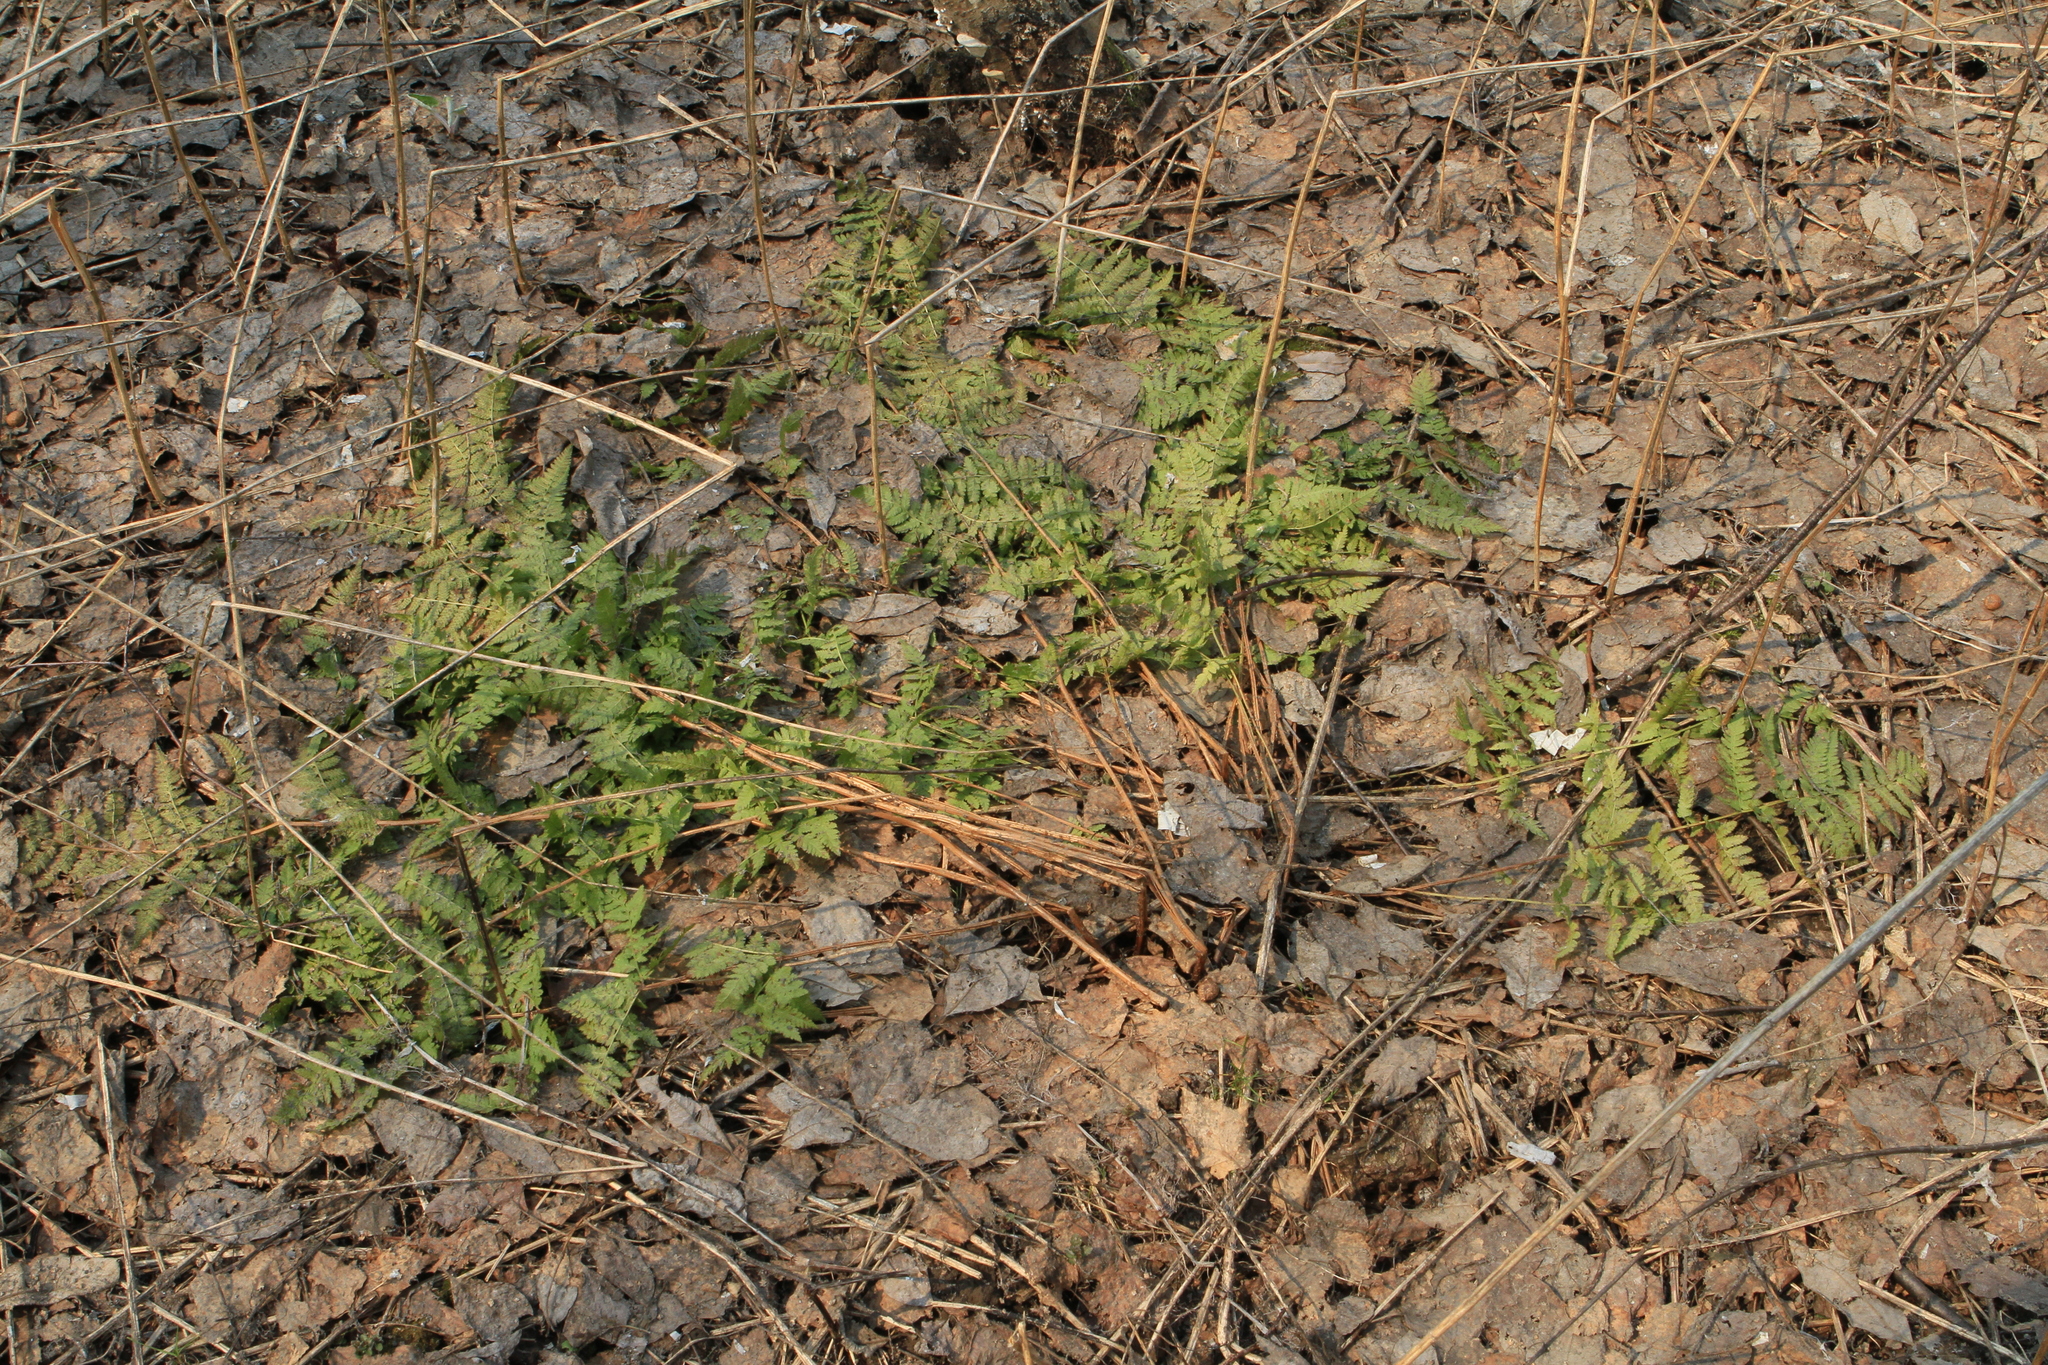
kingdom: Plantae
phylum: Tracheophyta
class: Polypodiopsida
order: Polypodiales
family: Dryopteridaceae
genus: Dryopteris
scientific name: Dryopteris carthusiana
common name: Narrow buckler-fern
